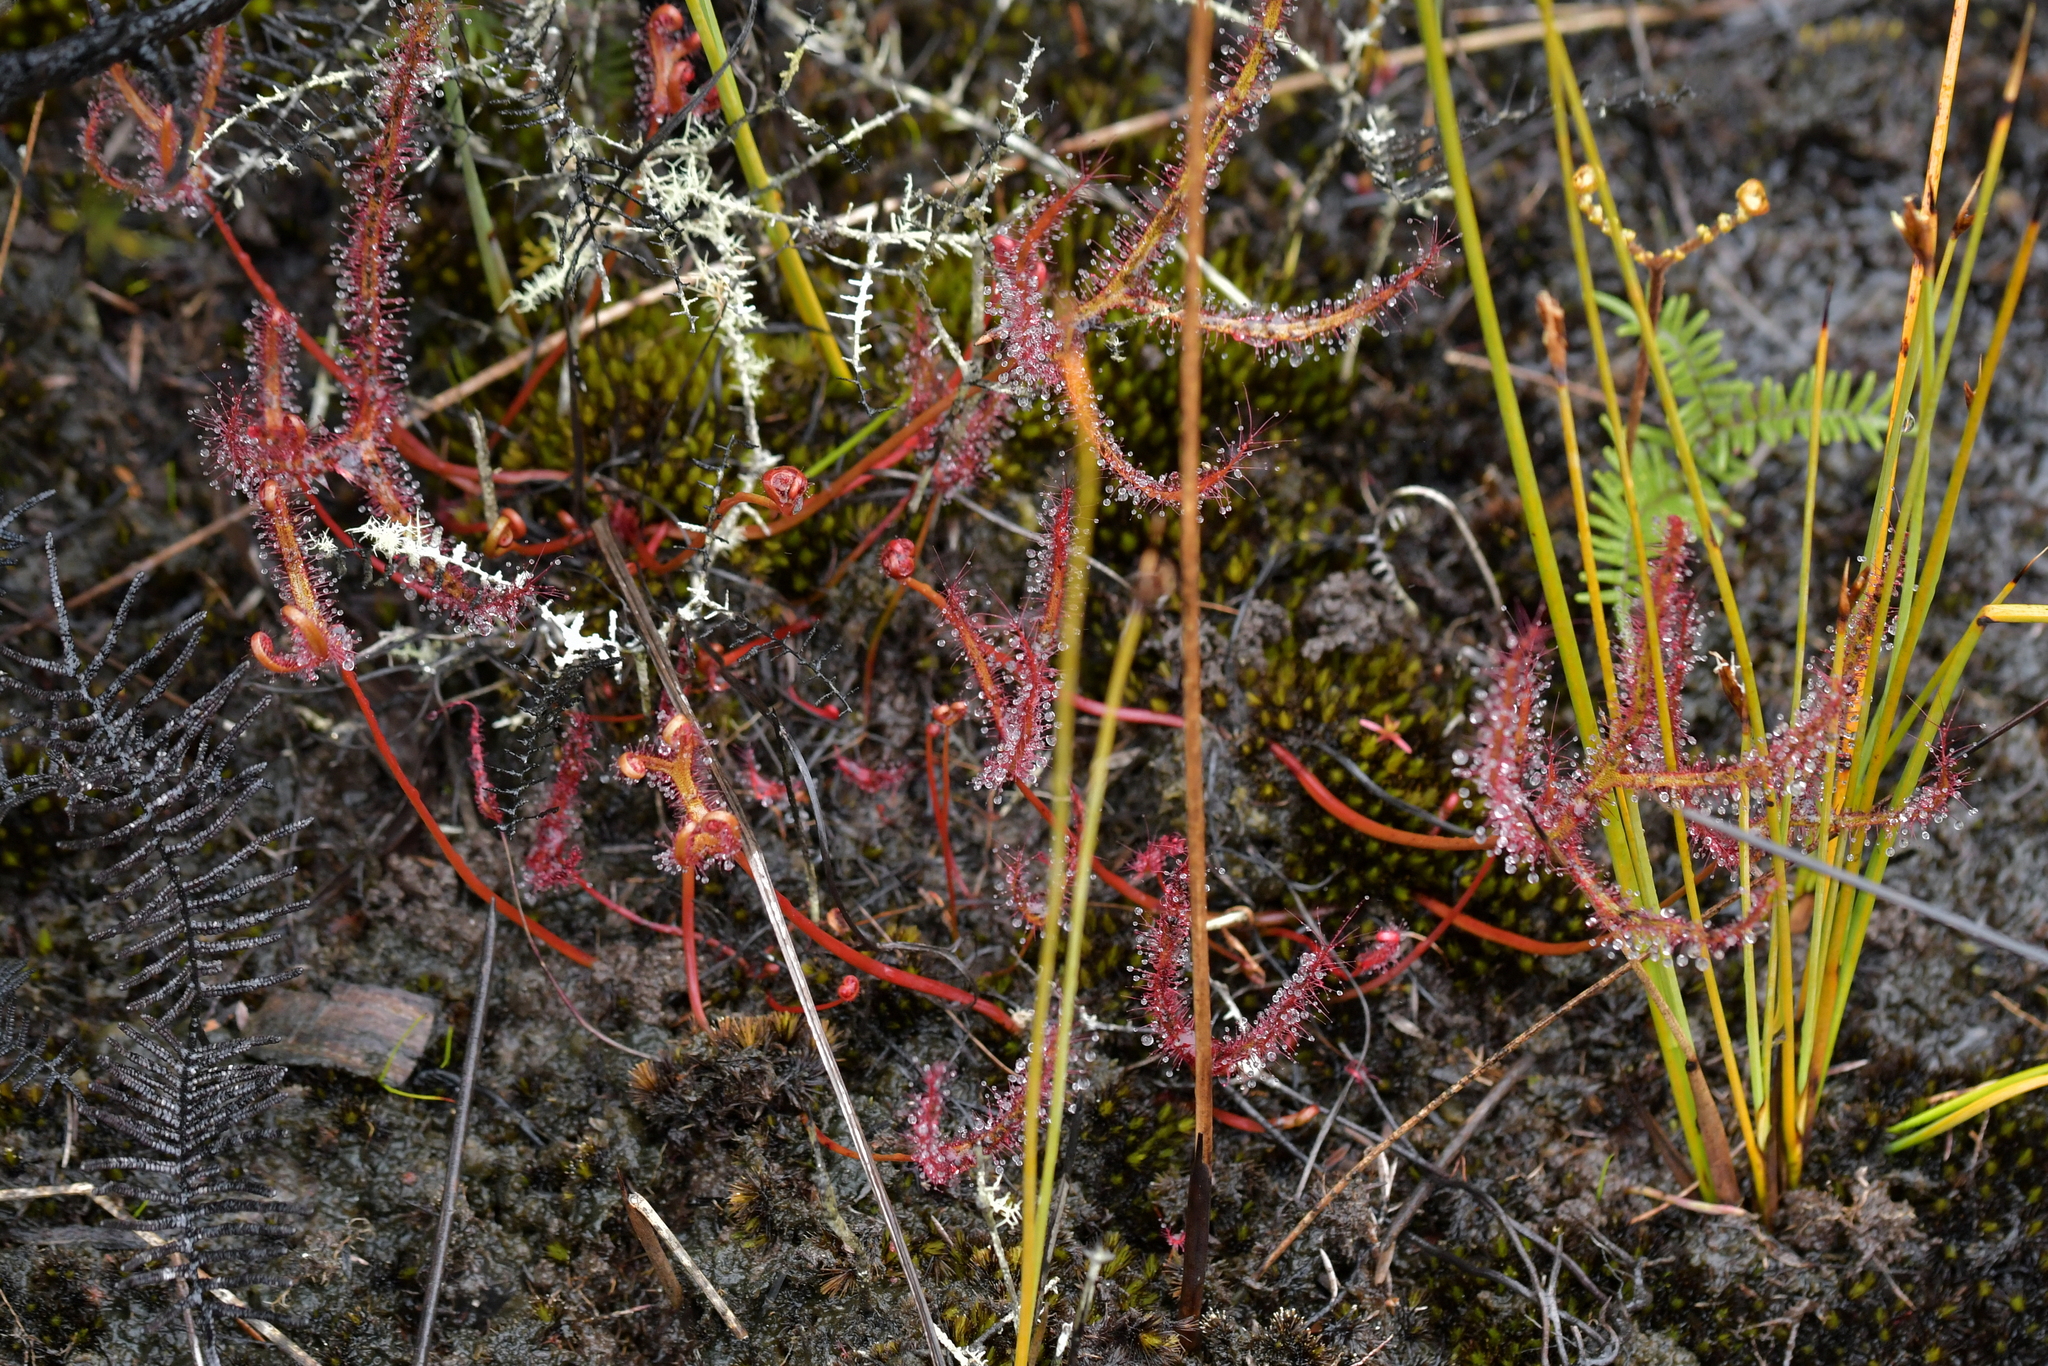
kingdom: Plantae
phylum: Tracheophyta
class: Magnoliopsida
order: Caryophyllales
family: Droseraceae
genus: Drosera
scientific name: Drosera binata
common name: Forked sundew
